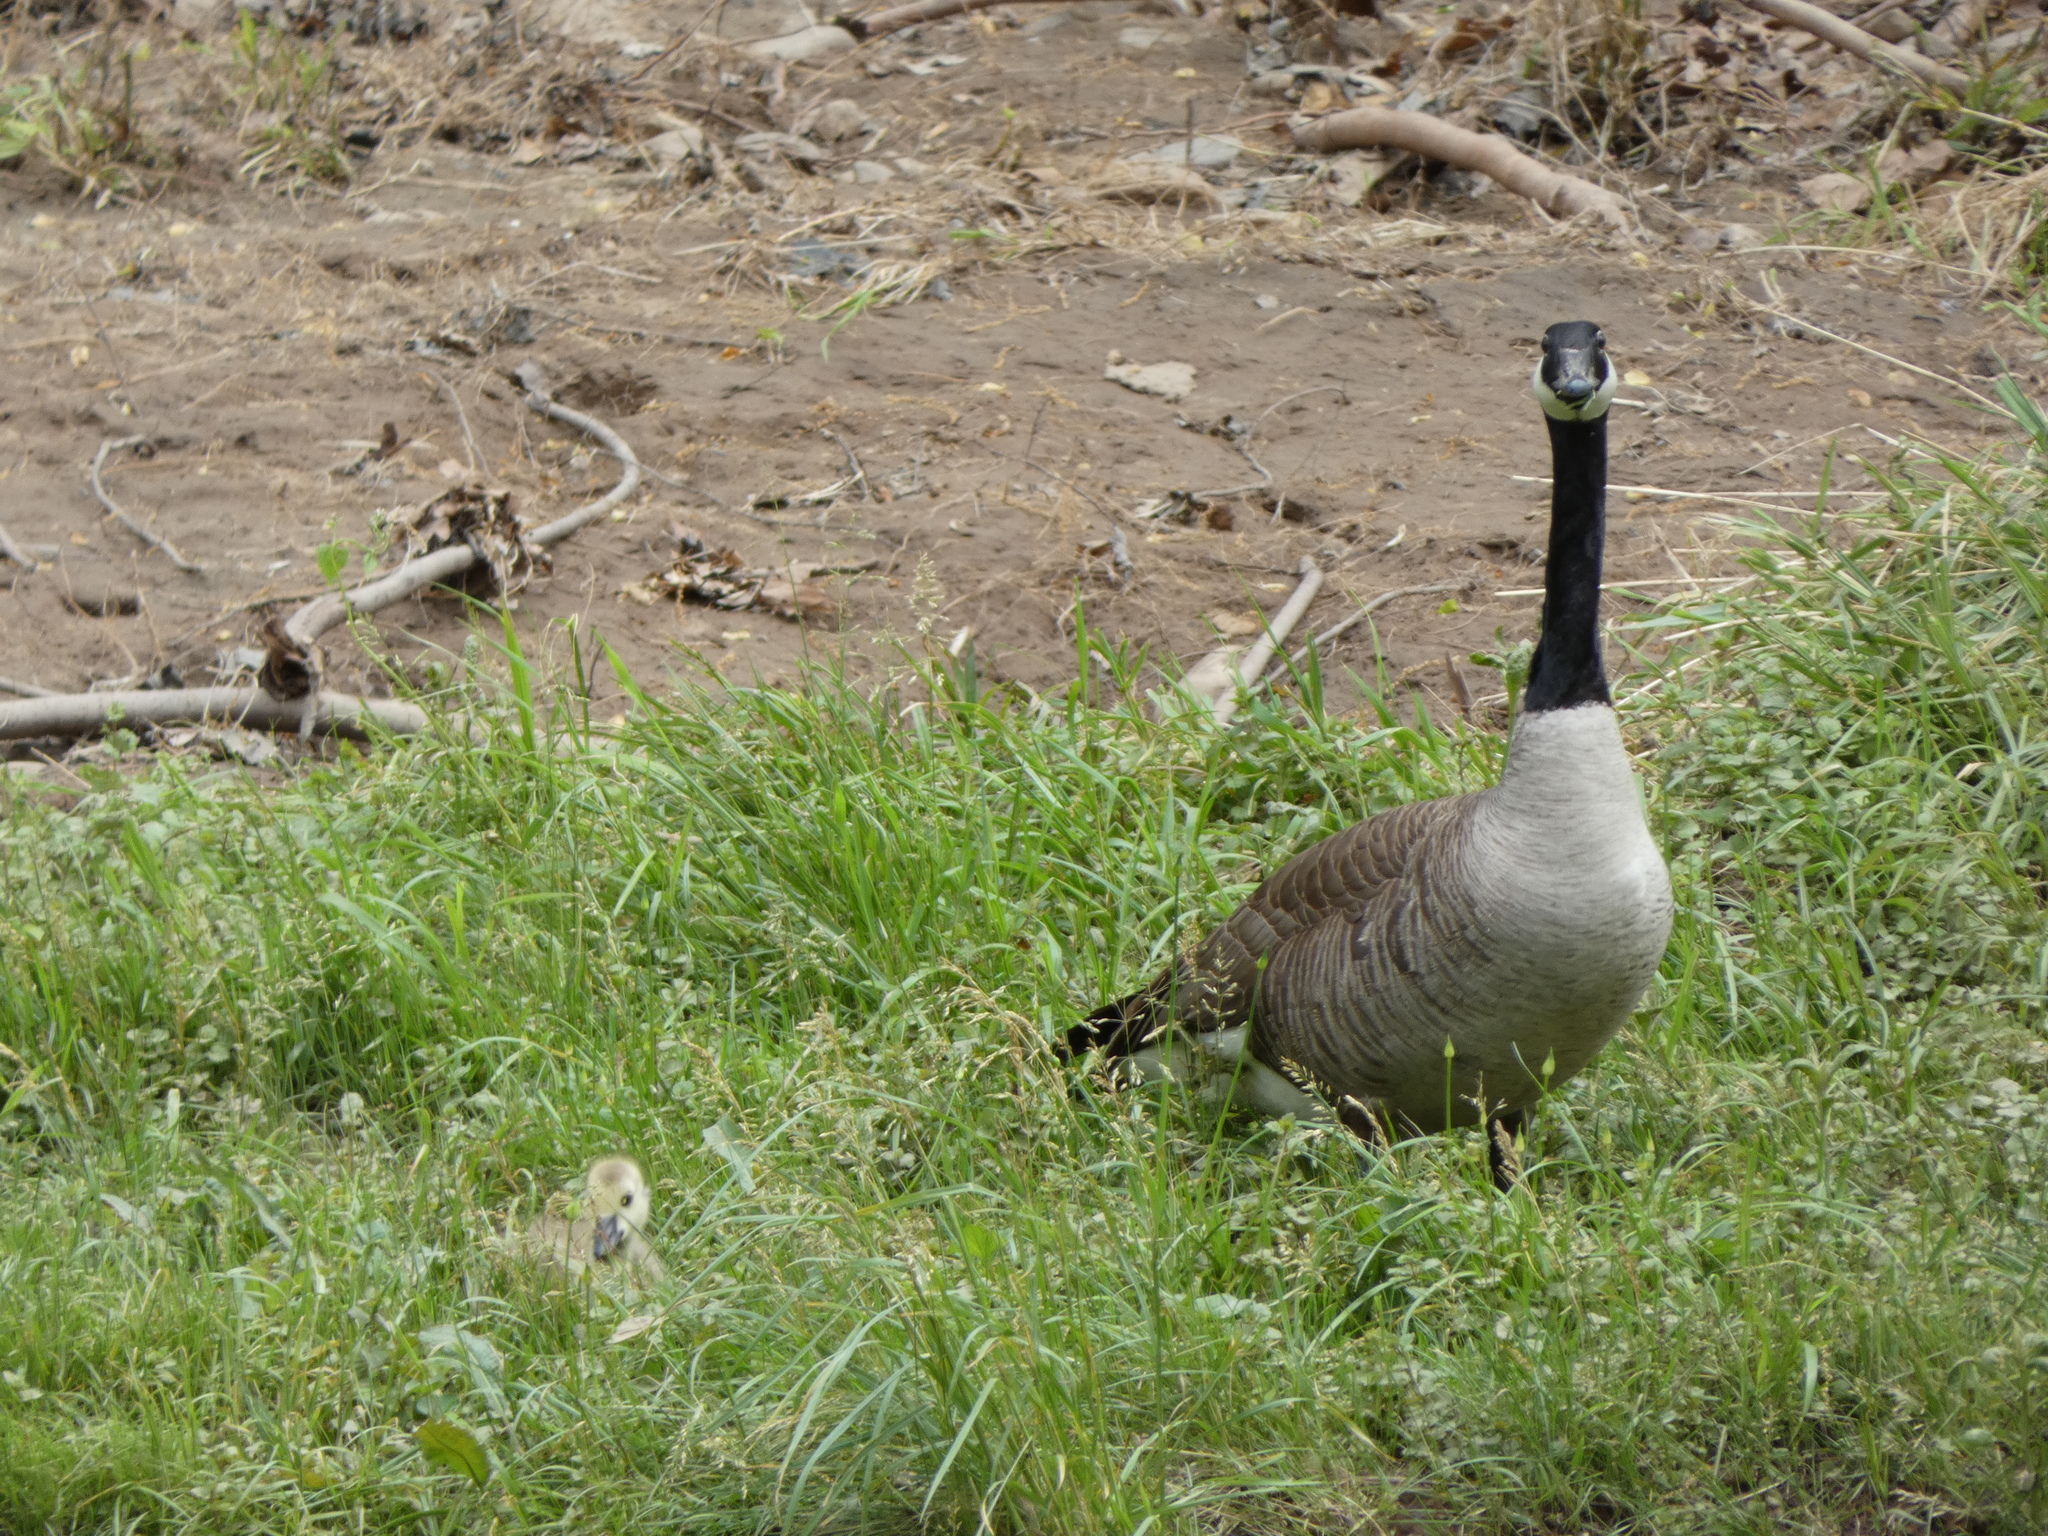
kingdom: Animalia
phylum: Chordata
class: Aves
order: Anseriformes
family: Anatidae
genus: Branta
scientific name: Branta canadensis
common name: Canada goose
